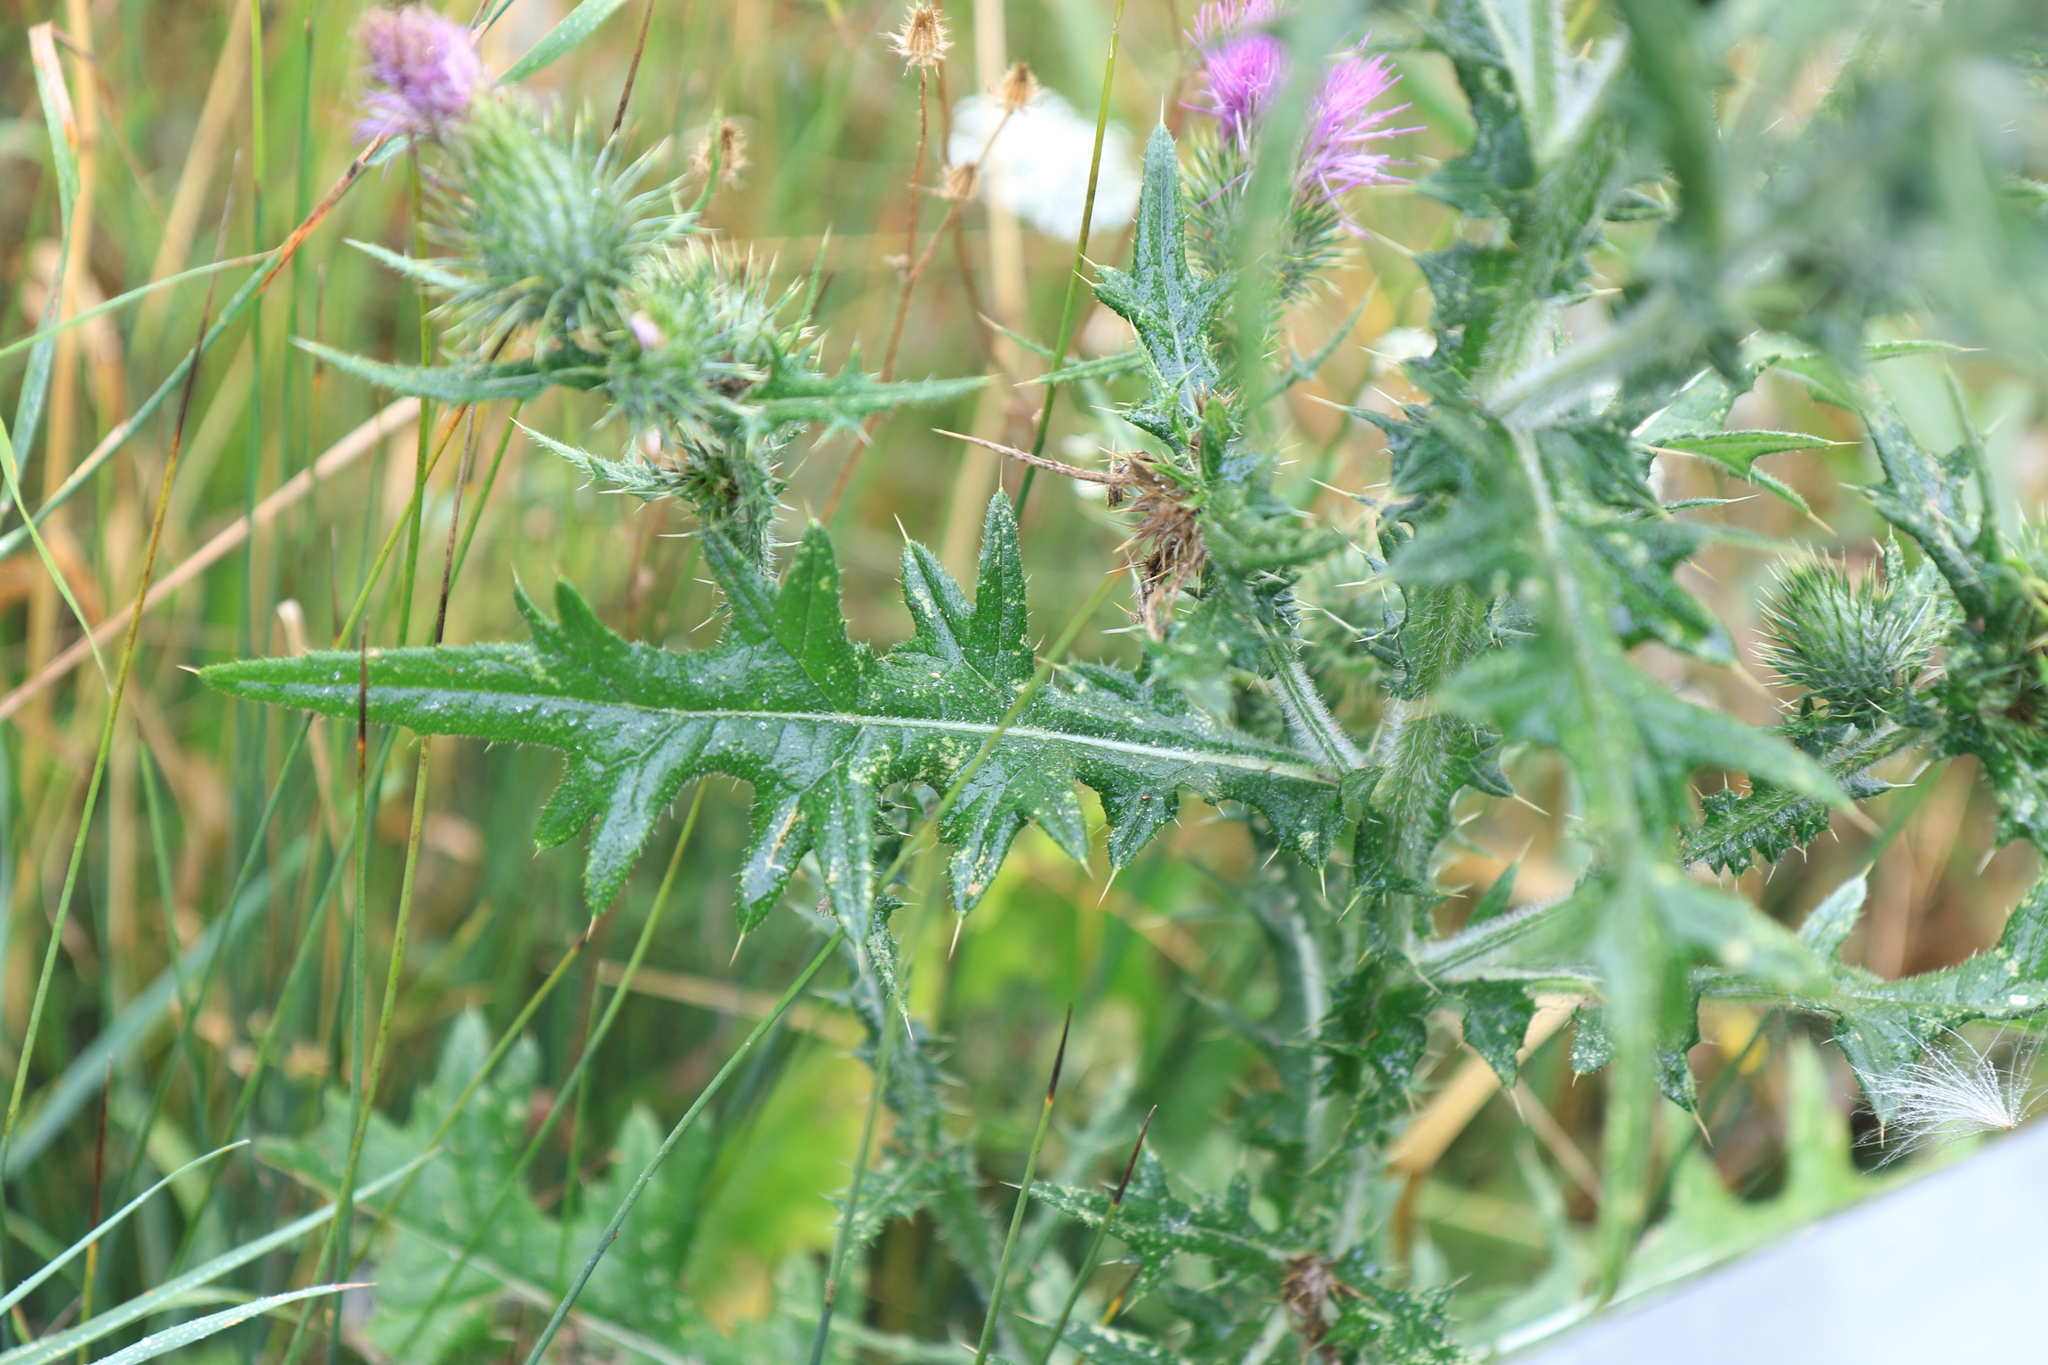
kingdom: Plantae
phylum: Tracheophyta
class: Magnoliopsida
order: Asterales
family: Asteraceae
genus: Cirsium
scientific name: Cirsium vulgare
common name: Bull thistle
